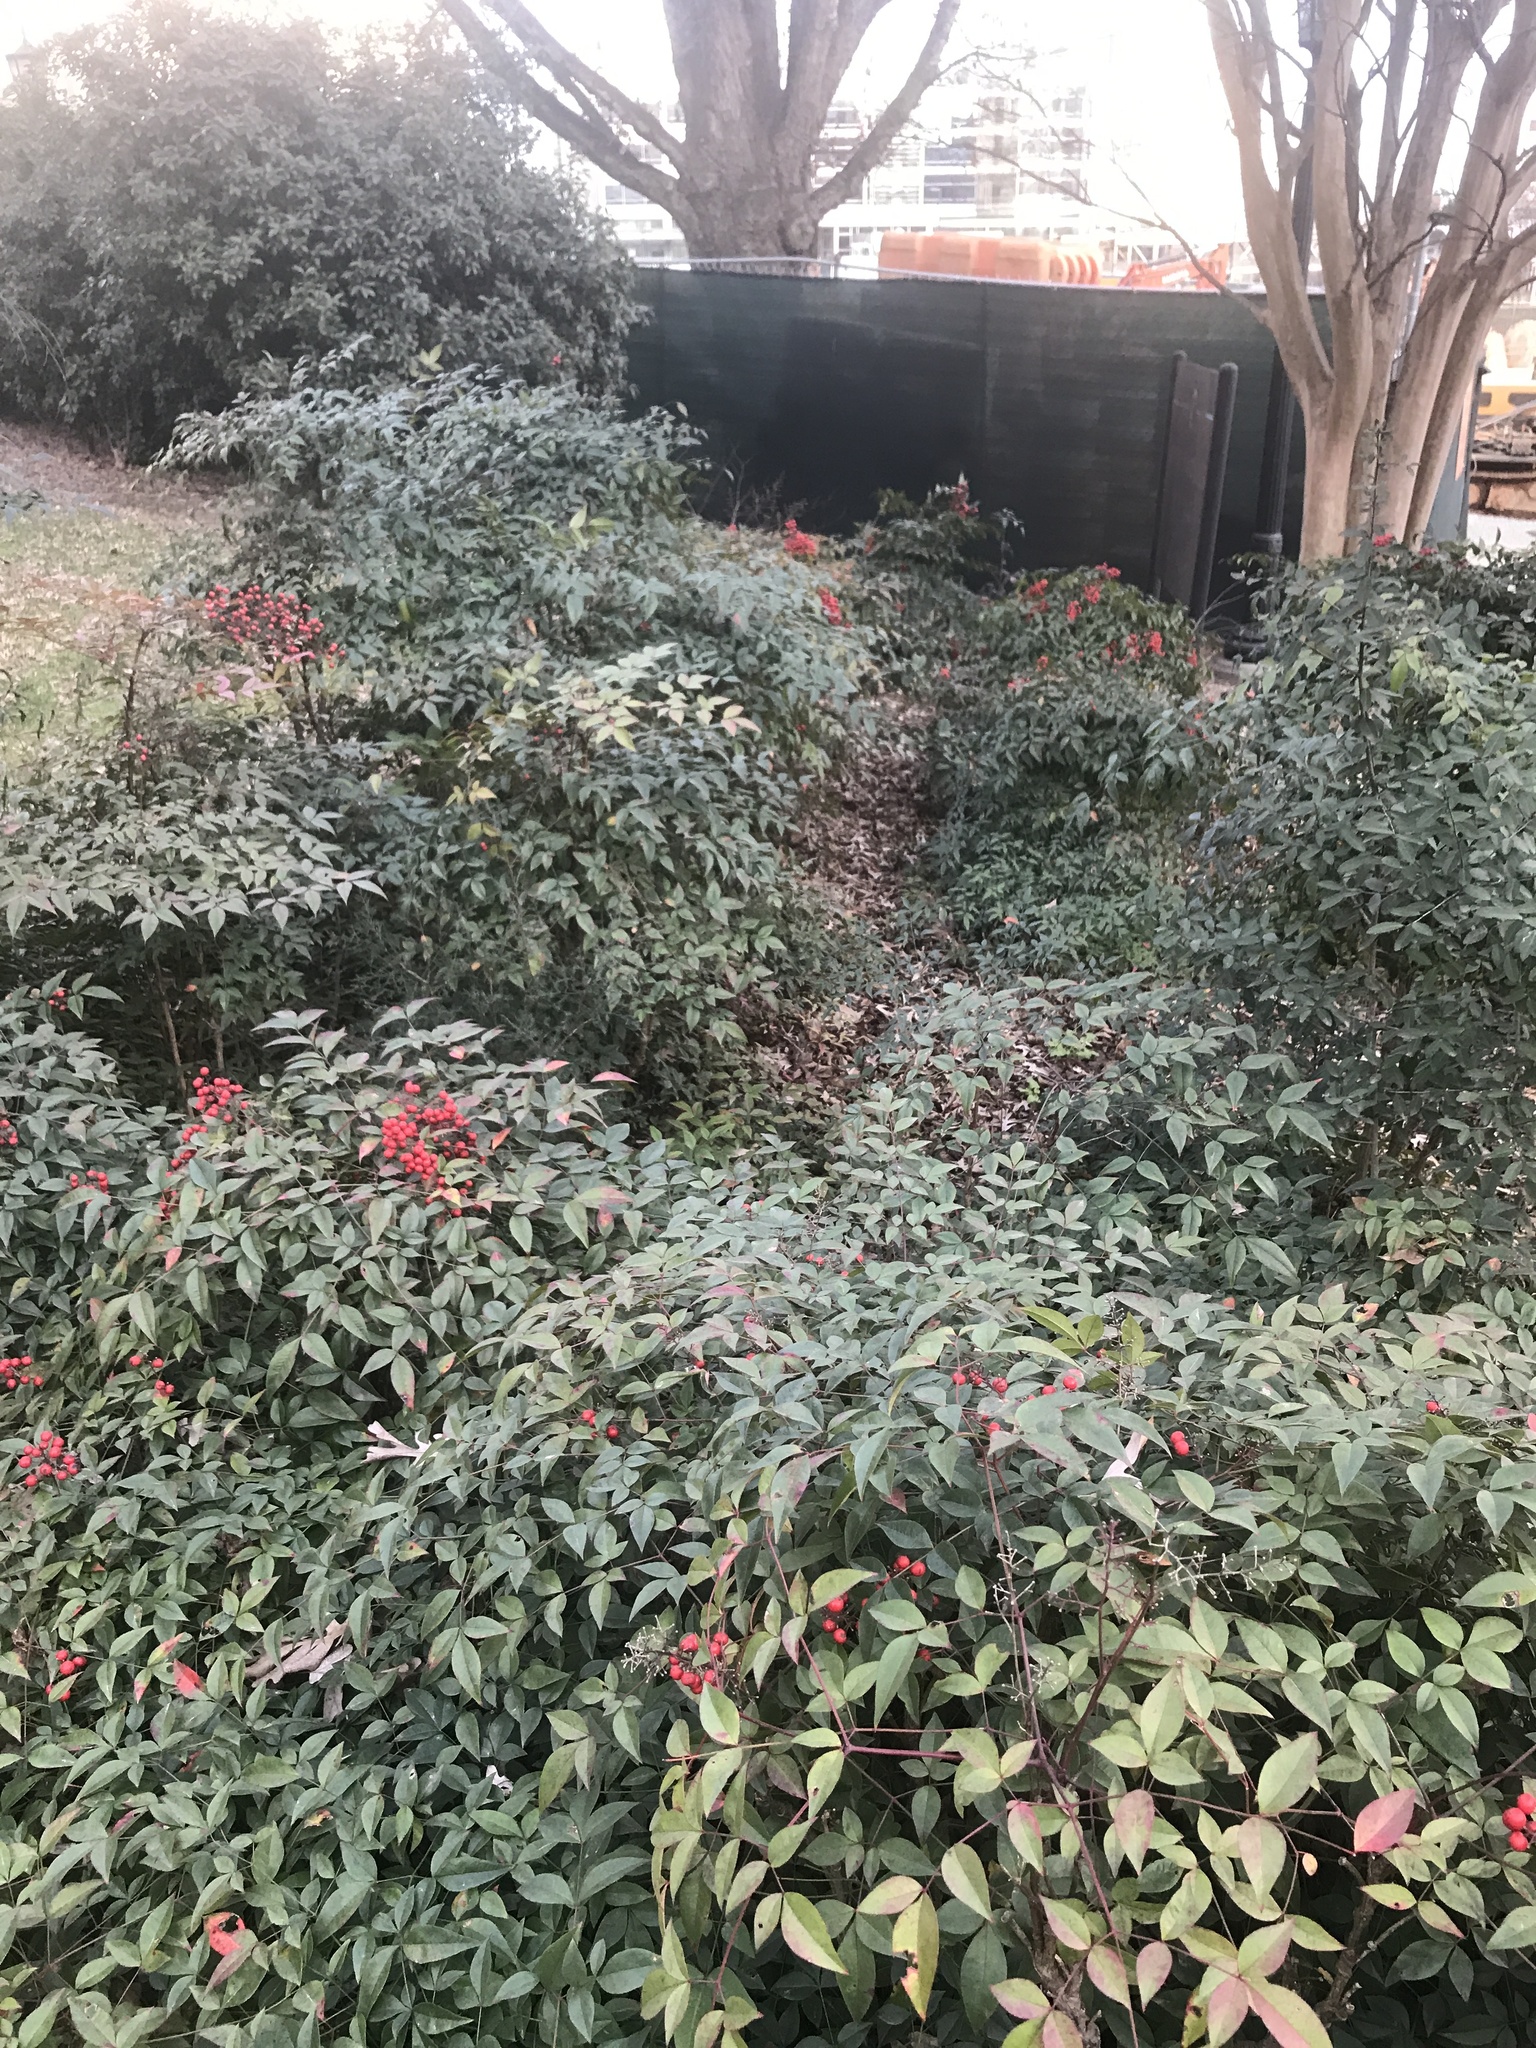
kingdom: Plantae
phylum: Tracheophyta
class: Magnoliopsida
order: Ranunculales
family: Berberidaceae
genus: Nandina
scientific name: Nandina domestica
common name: Sacred bamboo
